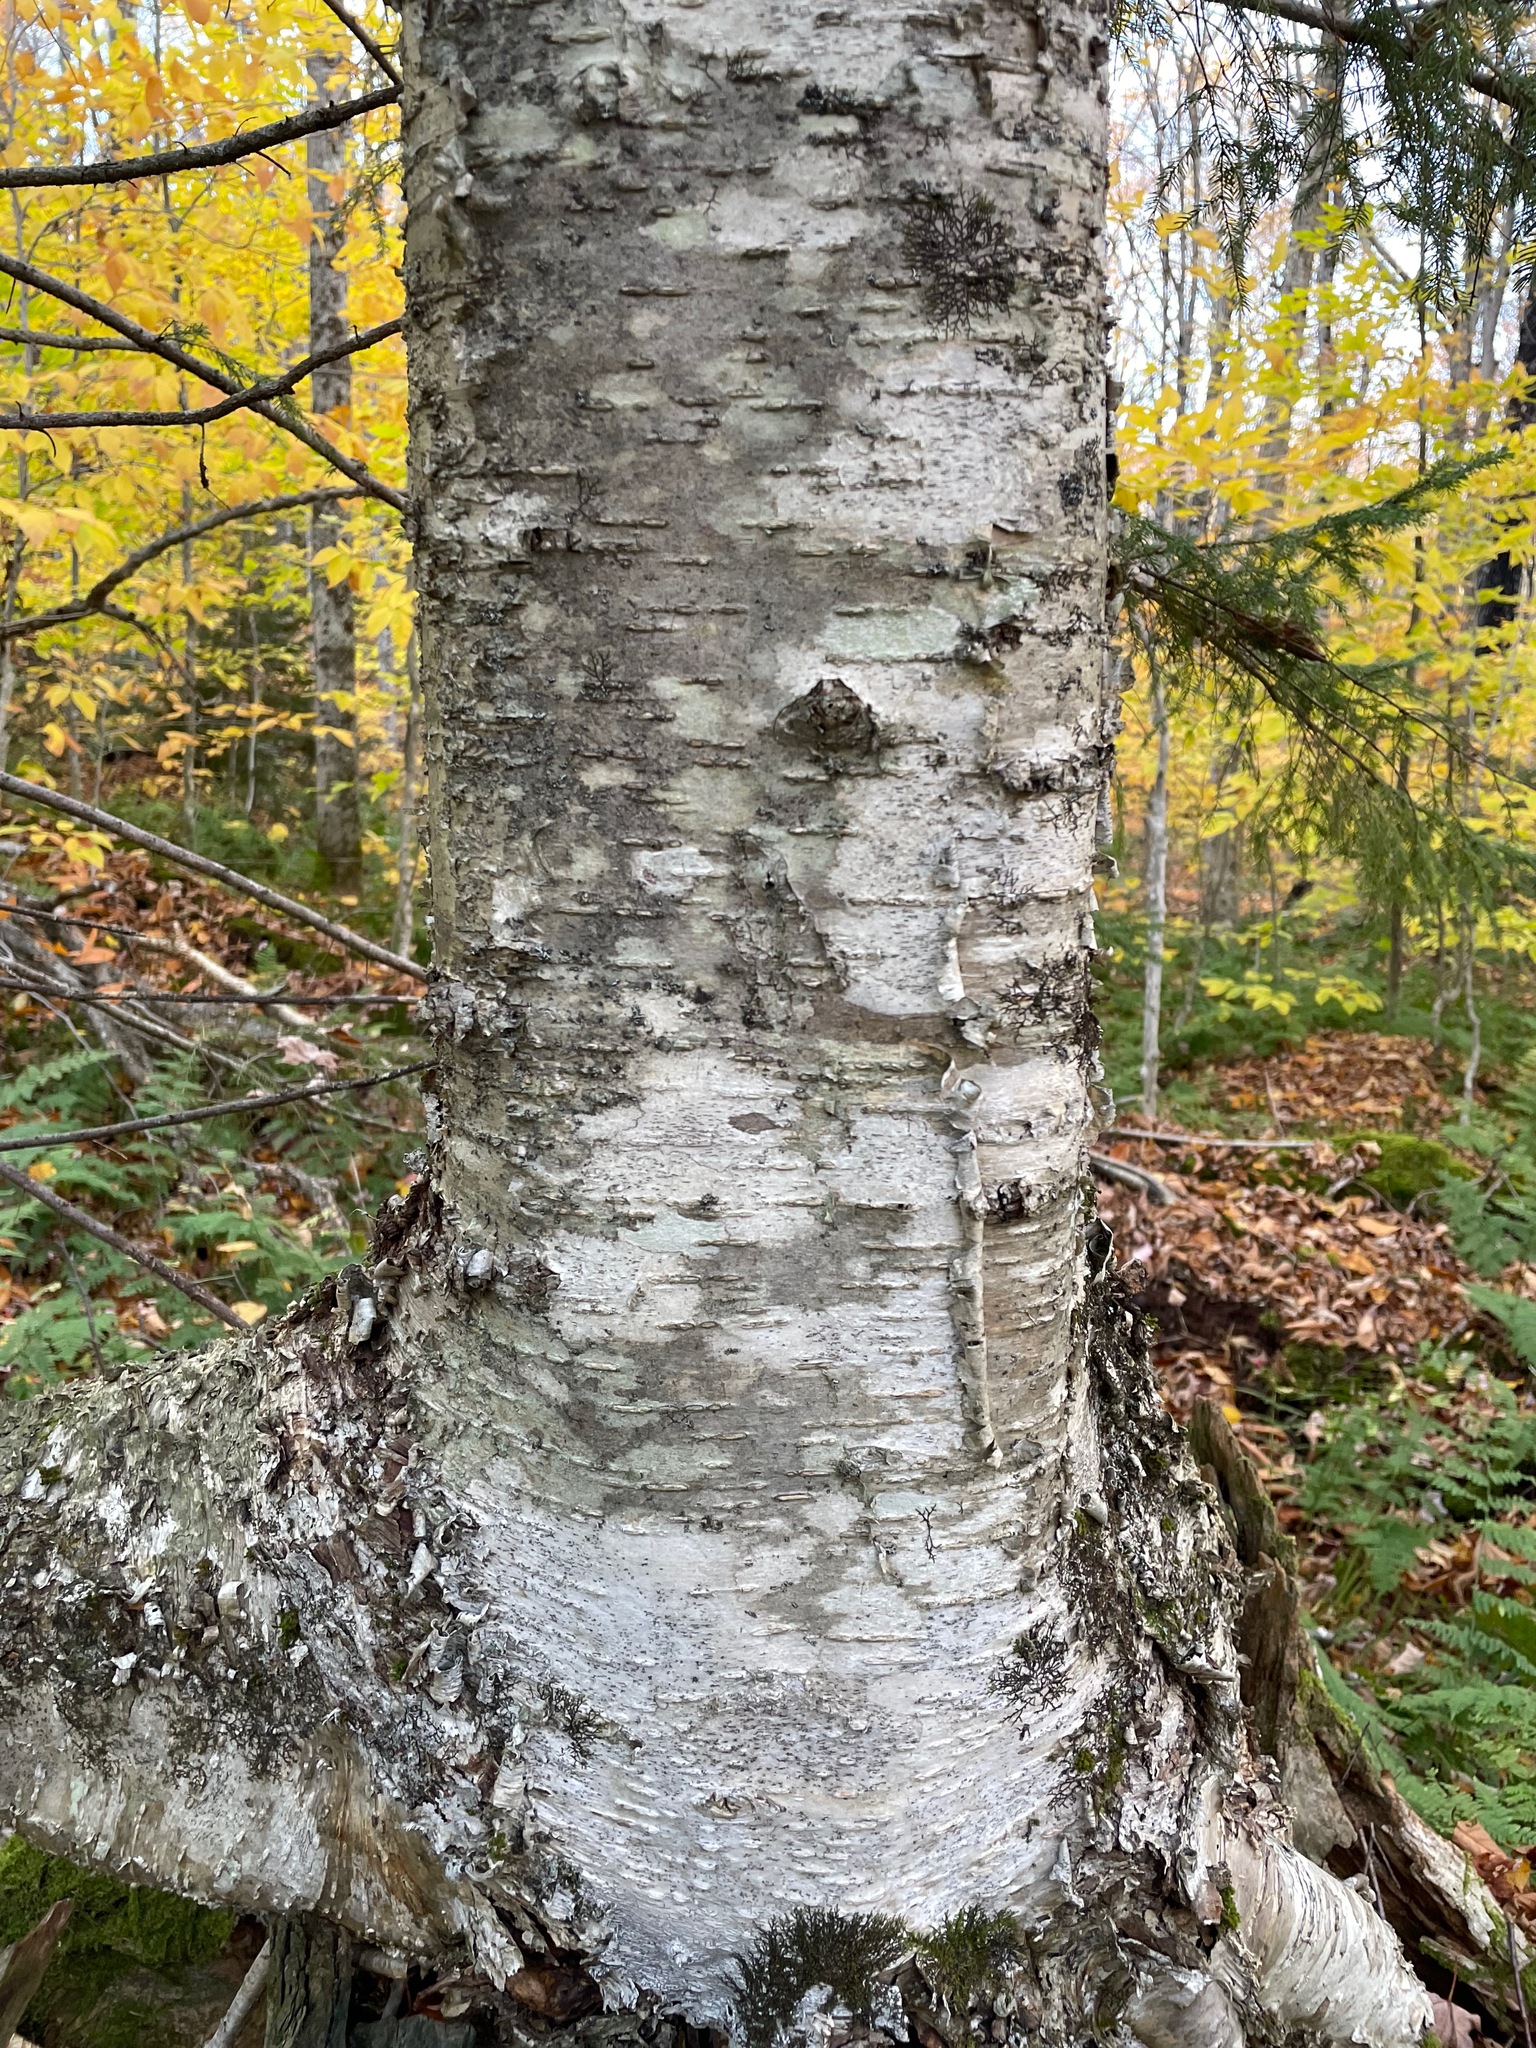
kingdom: Plantae
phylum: Tracheophyta
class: Magnoliopsida
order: Fagales
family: Betulaceae
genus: Betula
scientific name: Betula alleghaniensis
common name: Yellow birch
